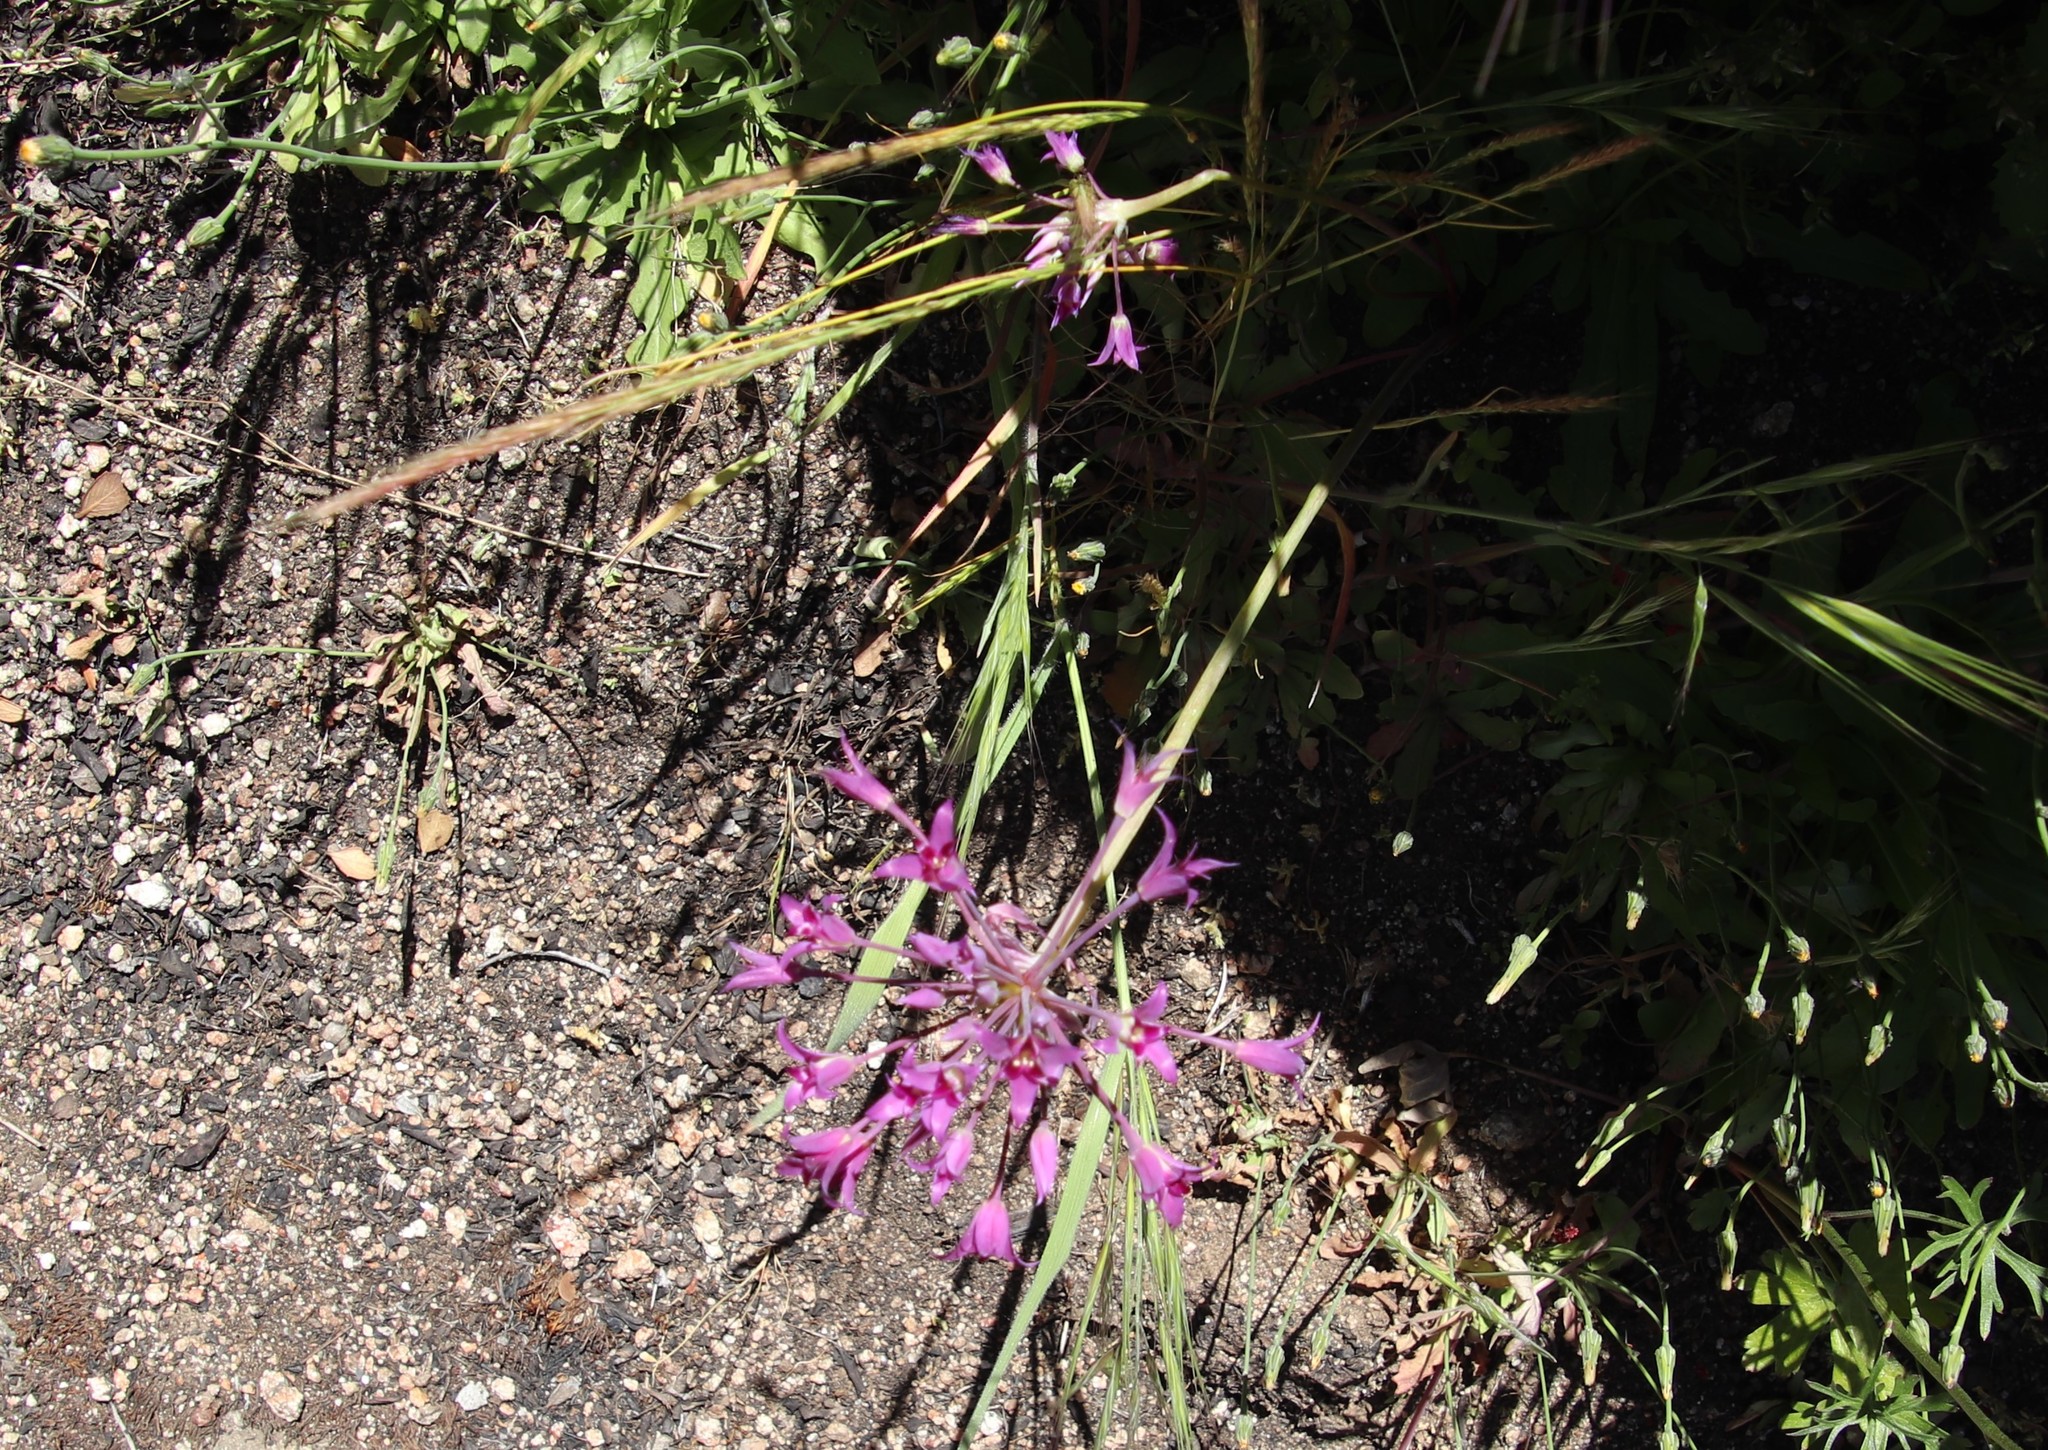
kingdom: Plantae
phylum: Tracheophyta
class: Liliopsida
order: Asparagales
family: Amaryllidaceae
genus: Allium
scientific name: Allium peninsulare
